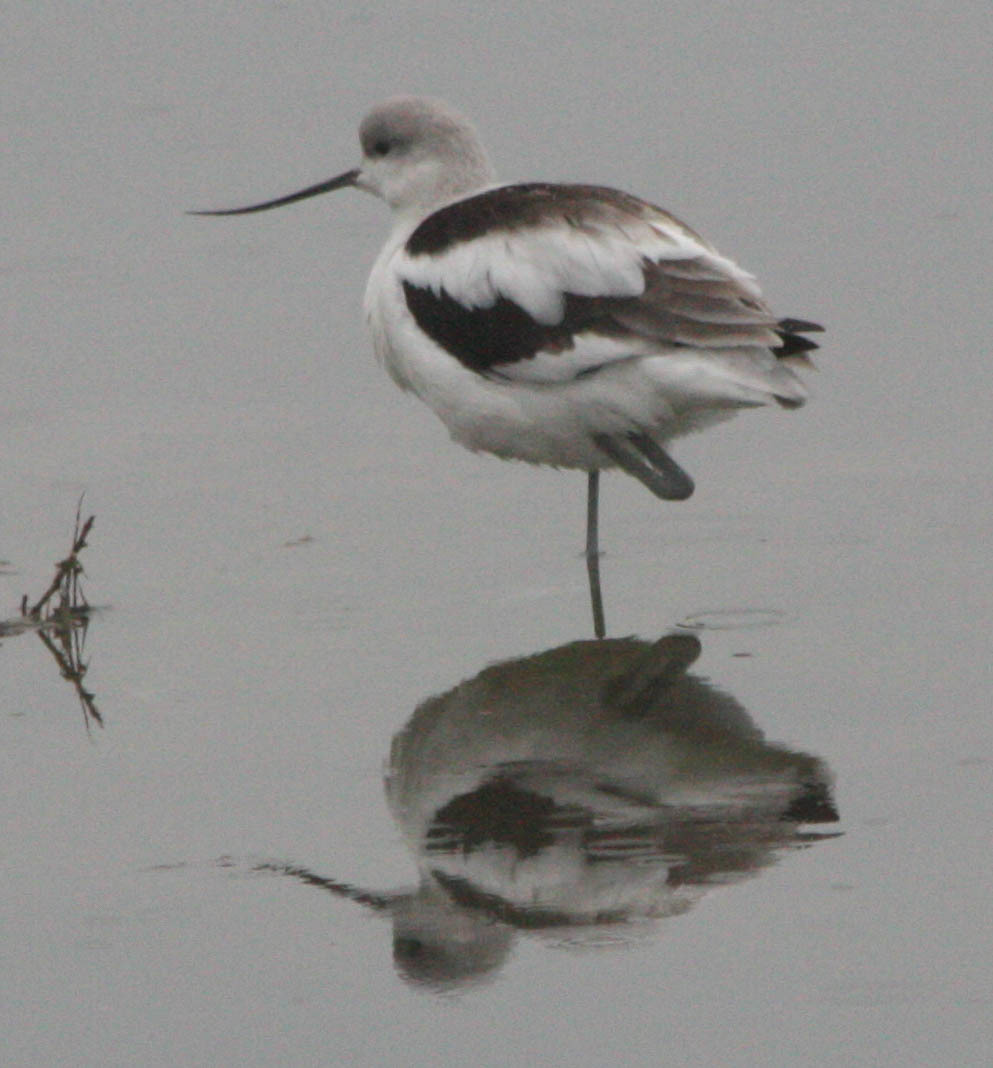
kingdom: Animalia
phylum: Chordata
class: Aves
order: Charadriiformes
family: Recurvirostridae
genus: Recurvirostra
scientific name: Recurvirostra americana
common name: American avocet
